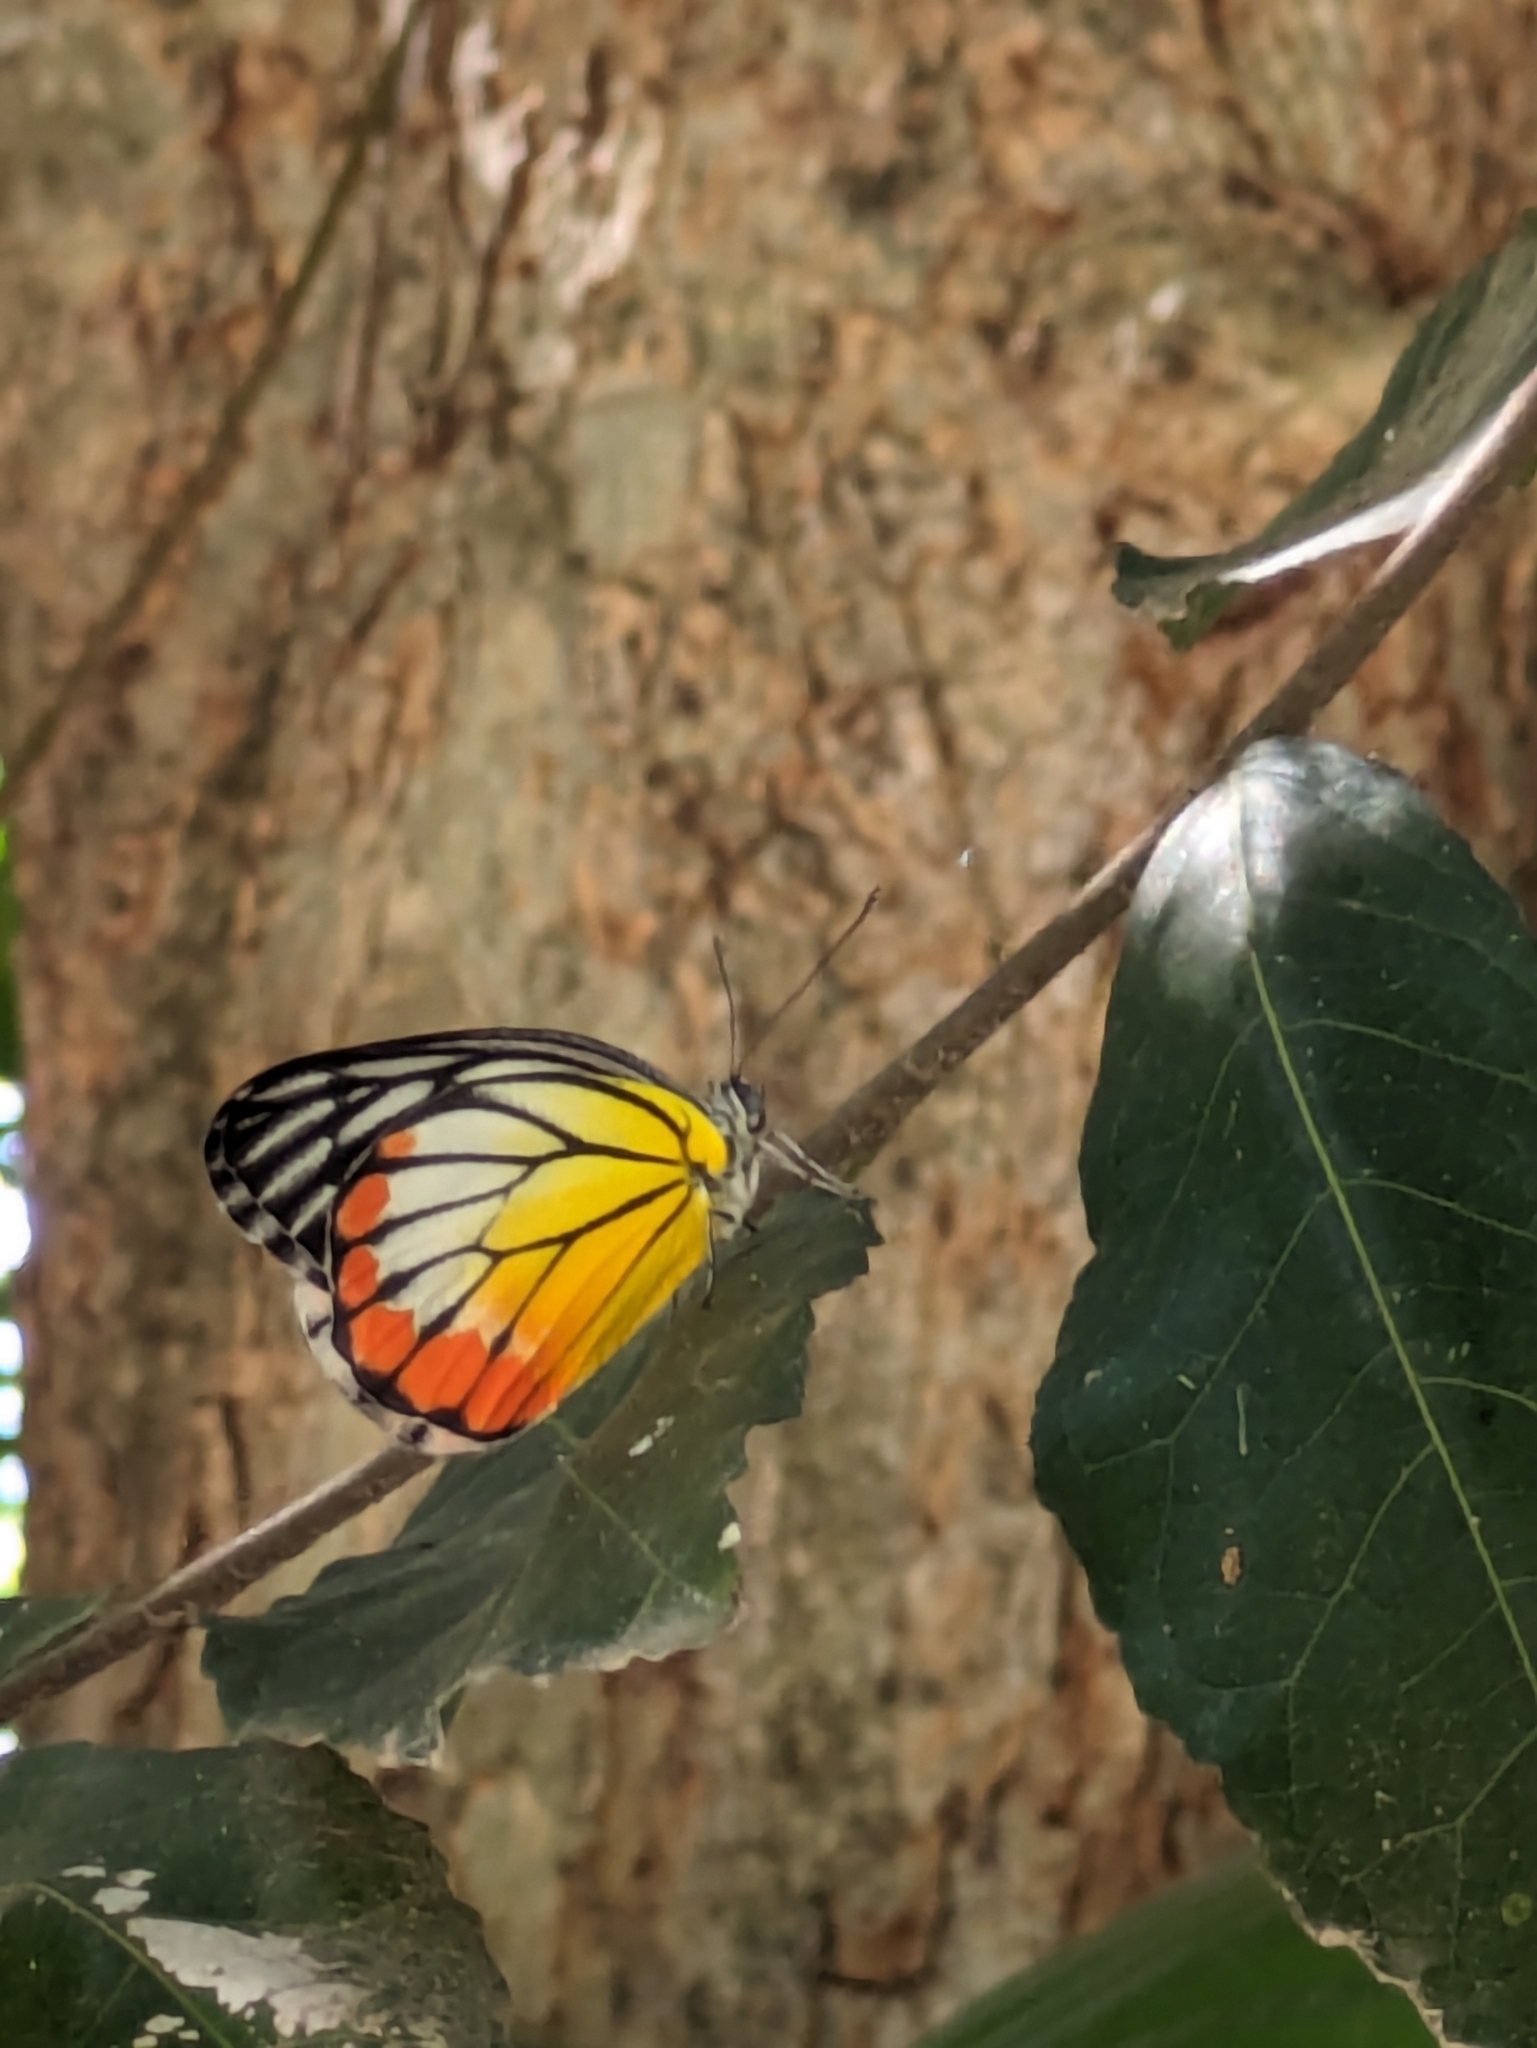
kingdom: Animalia
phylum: Arthropoda
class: Insecta
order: Lepidoptera
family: Pieridae
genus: Delias
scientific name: Delias hyparete
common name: Painted jezebel
